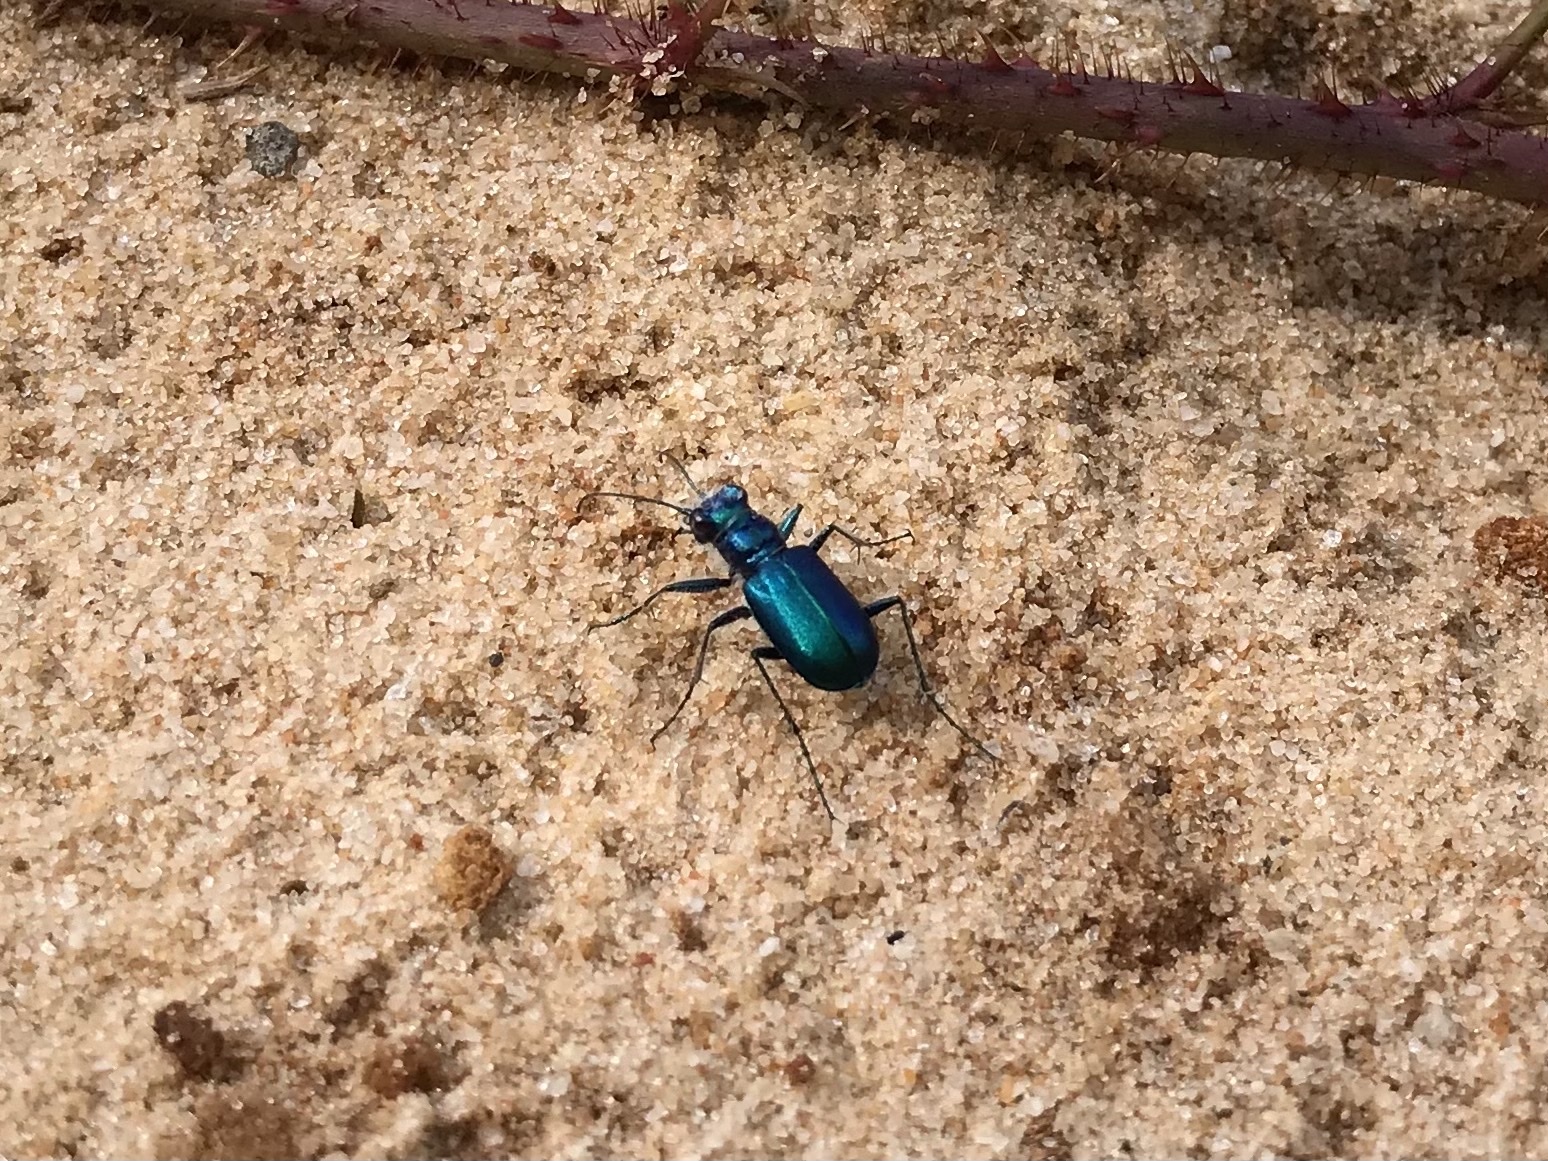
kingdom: Animalia
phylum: Arthropoda
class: Insecta
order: Coleoptera
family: Carabidae
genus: Cicindela
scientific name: Cicindela scutellaris
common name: Festive tiger beetle
